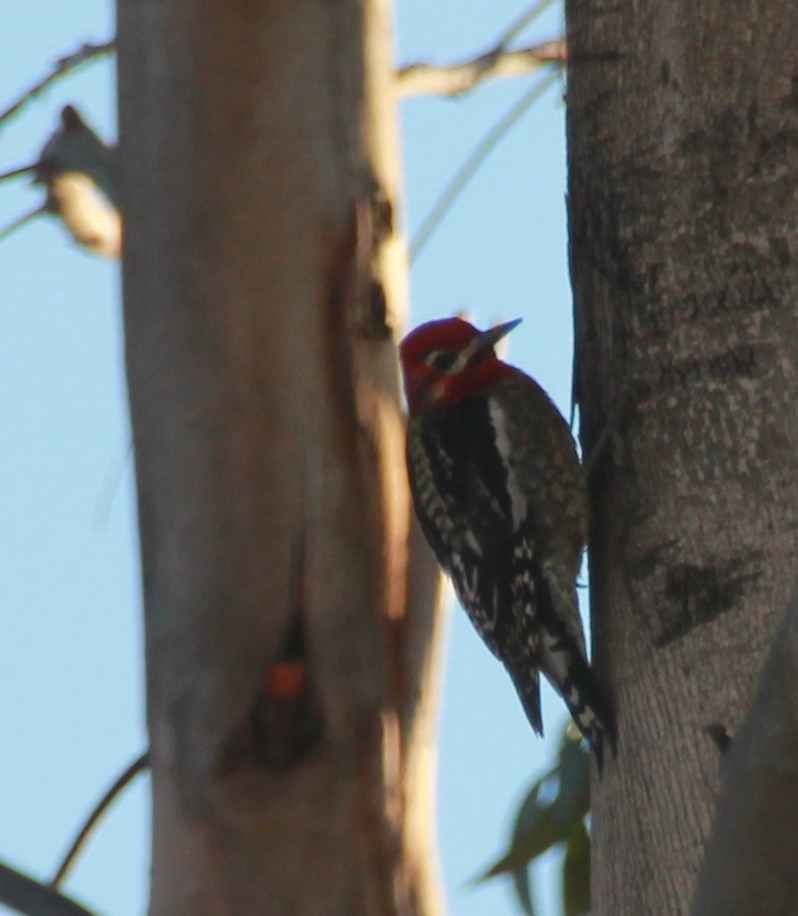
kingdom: Animalia
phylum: Chordata
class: Aves
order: Piciformes
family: Picidae
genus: Sphyrapicus
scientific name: Sphyrapicus ruber
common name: Red-breasted sapsucker
